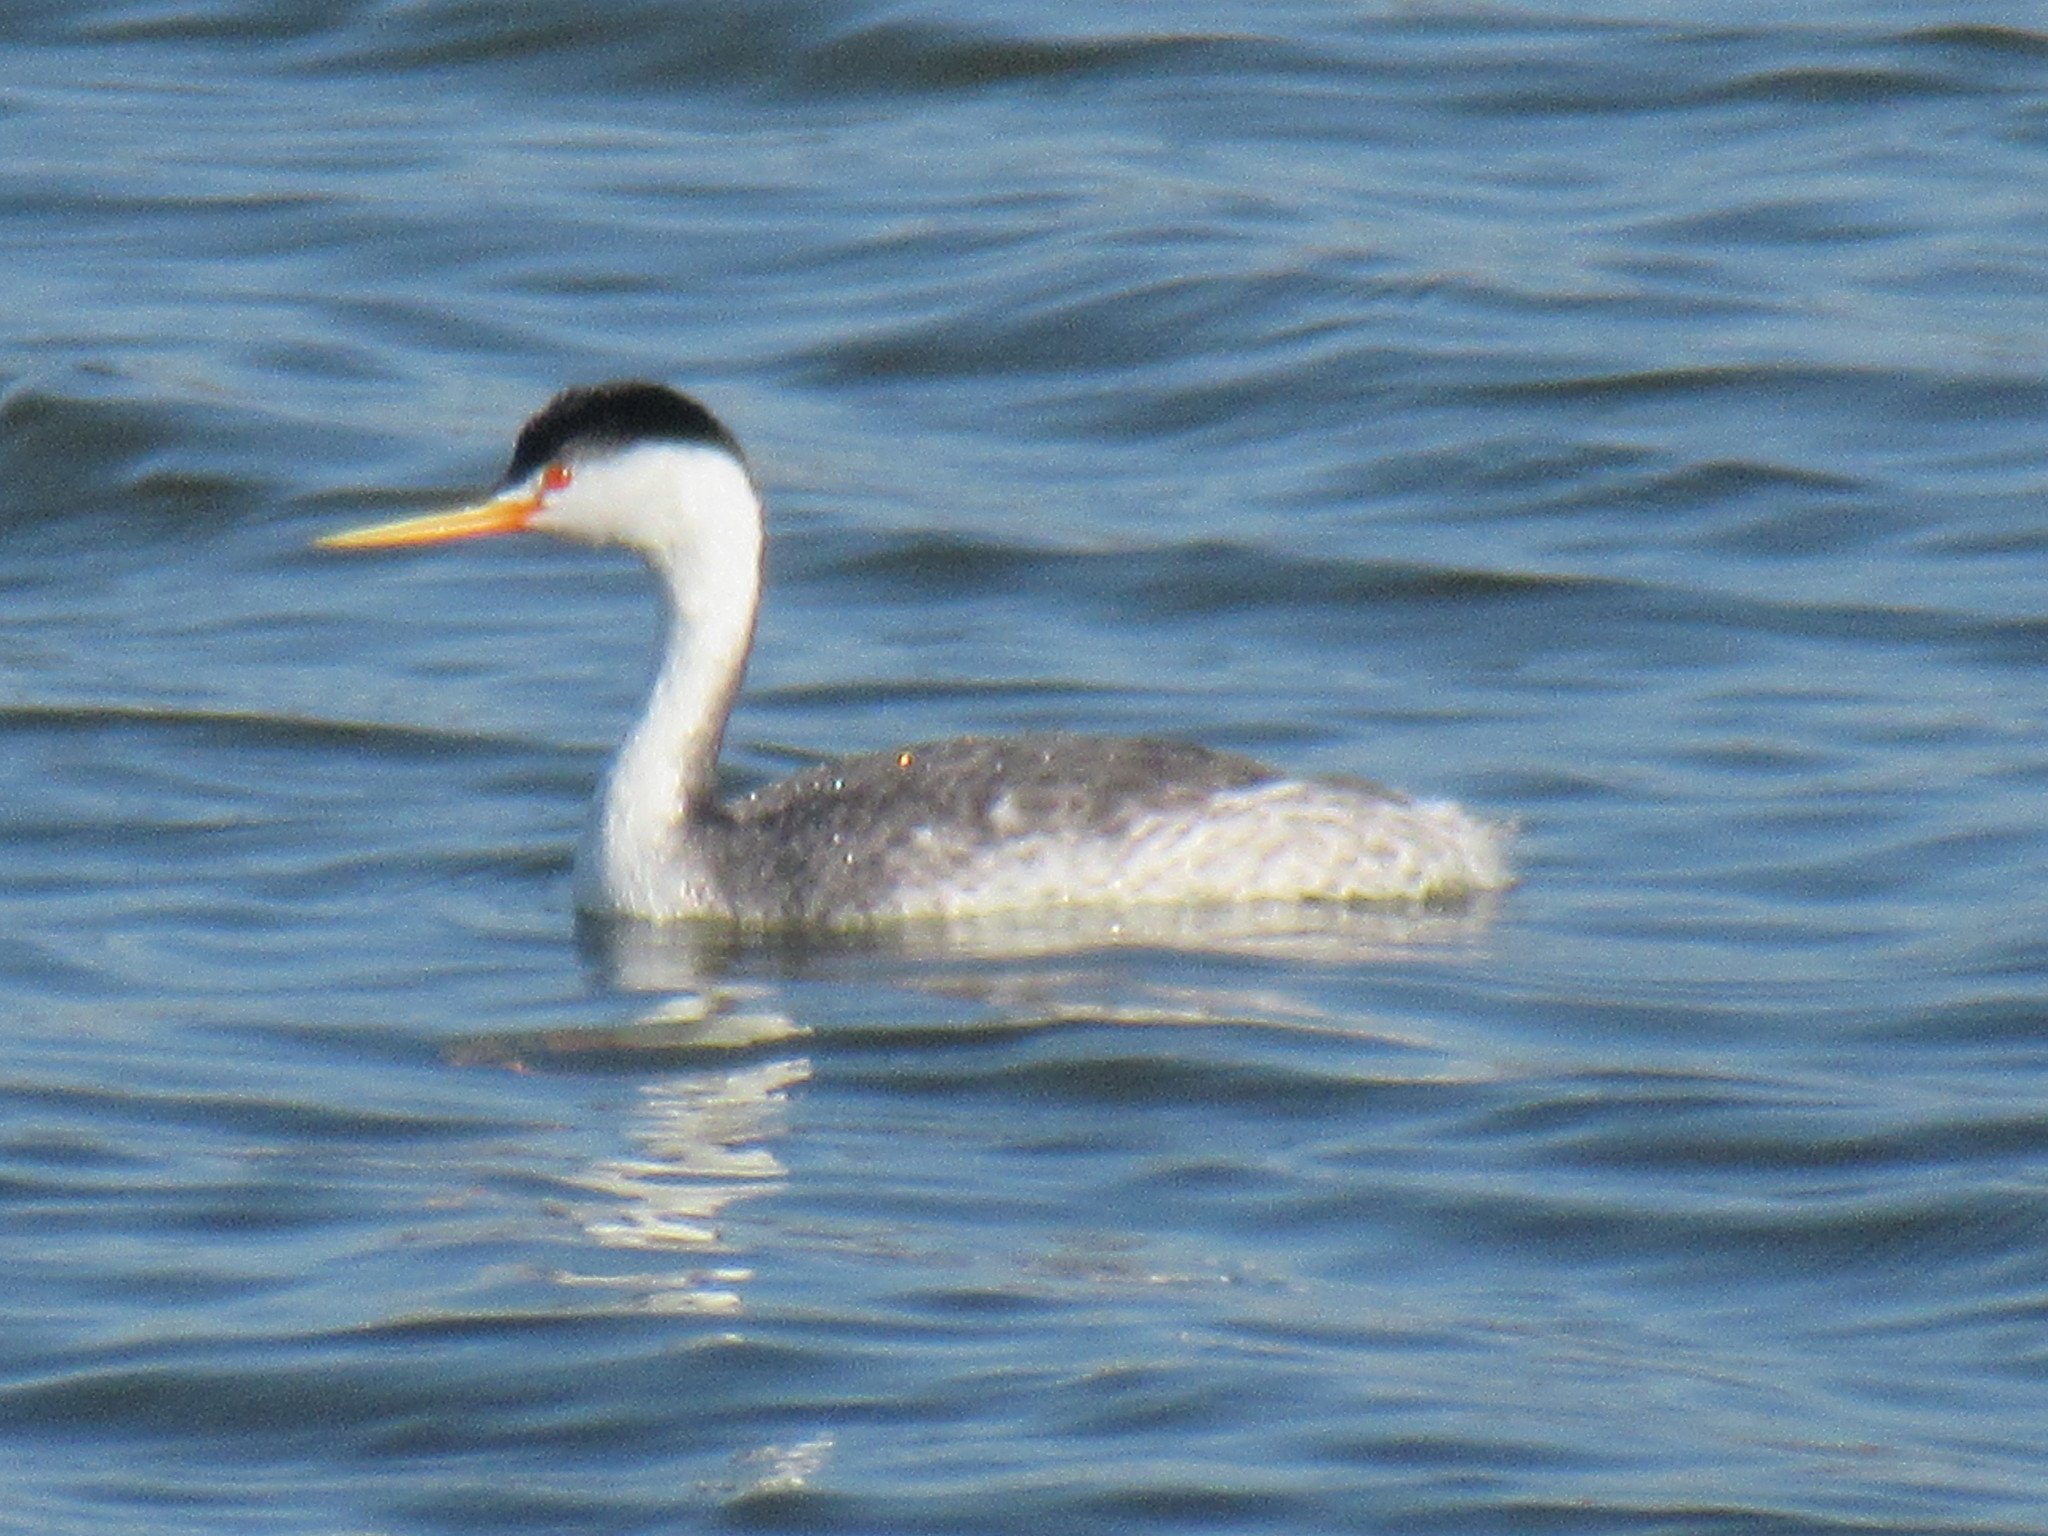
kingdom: Animalia
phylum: Chordata
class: Aves
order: Podicipediformes
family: Podicipedidae
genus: Aechmophorus
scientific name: Aechmophorus clarkii
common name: Clark's grebe
